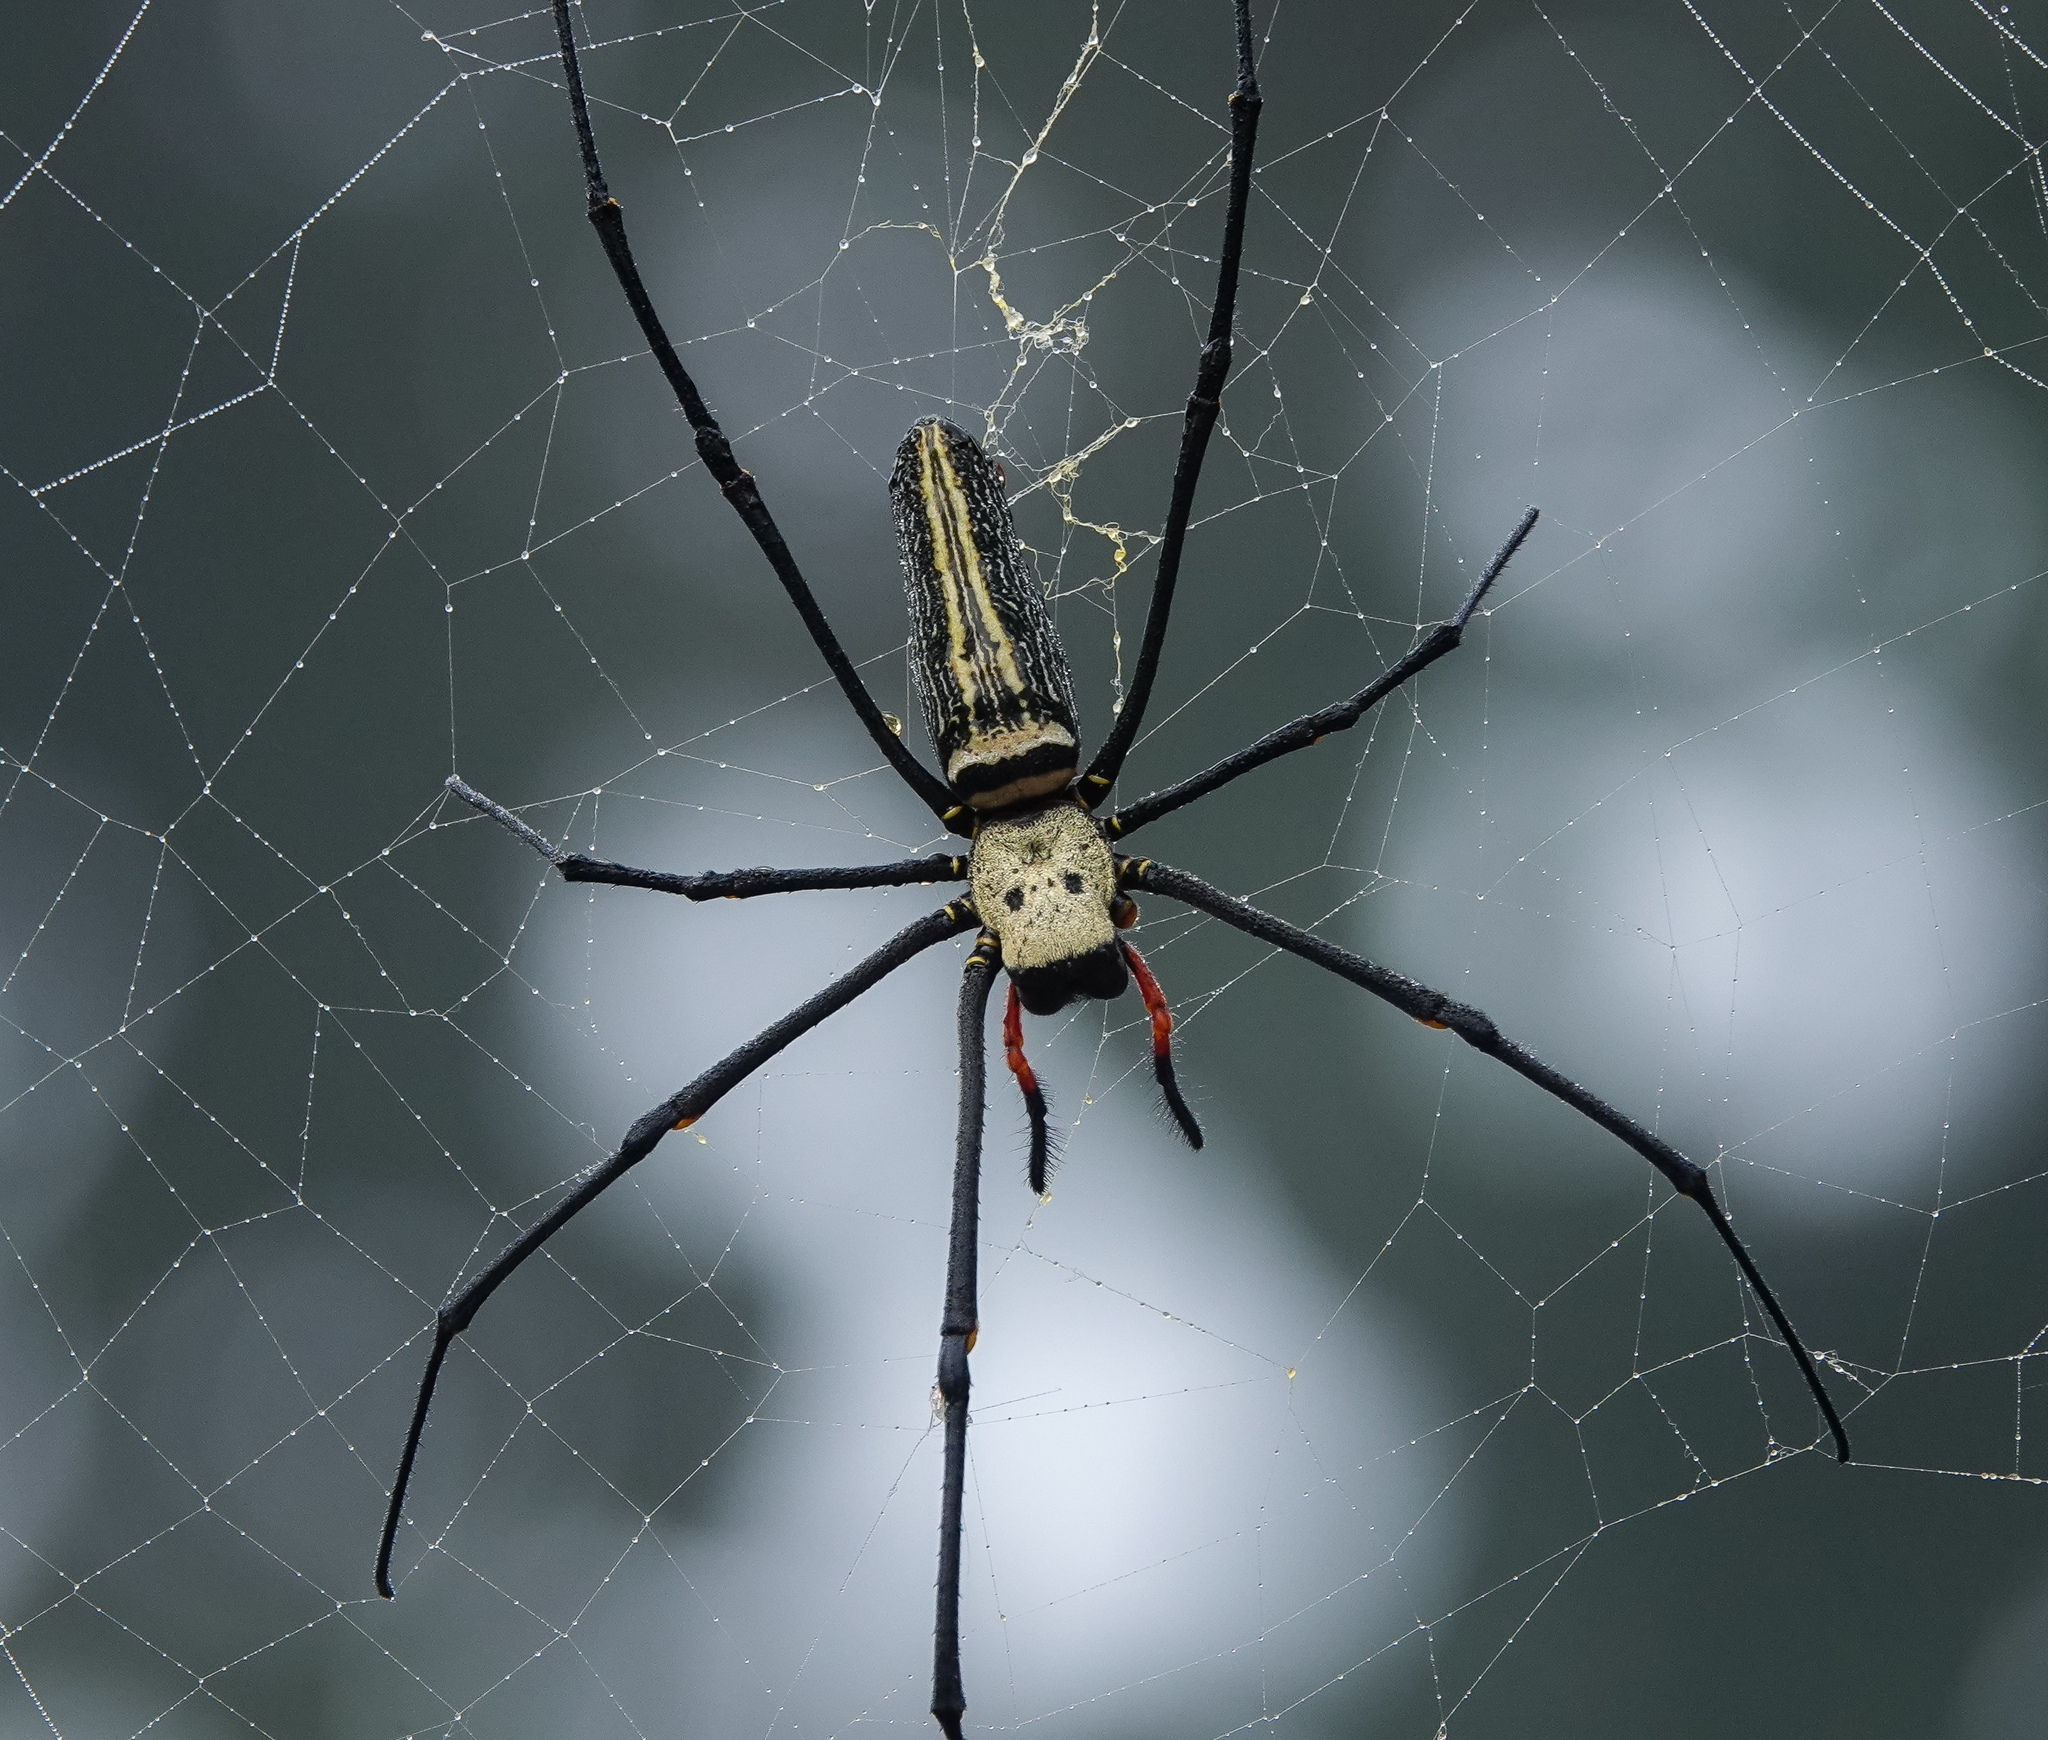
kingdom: Animalia
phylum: Arthropoda
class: Arachnida
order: Araneae
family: Araneidae
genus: Nephila
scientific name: Nephila pilipes
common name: Giant golden orb weaver
